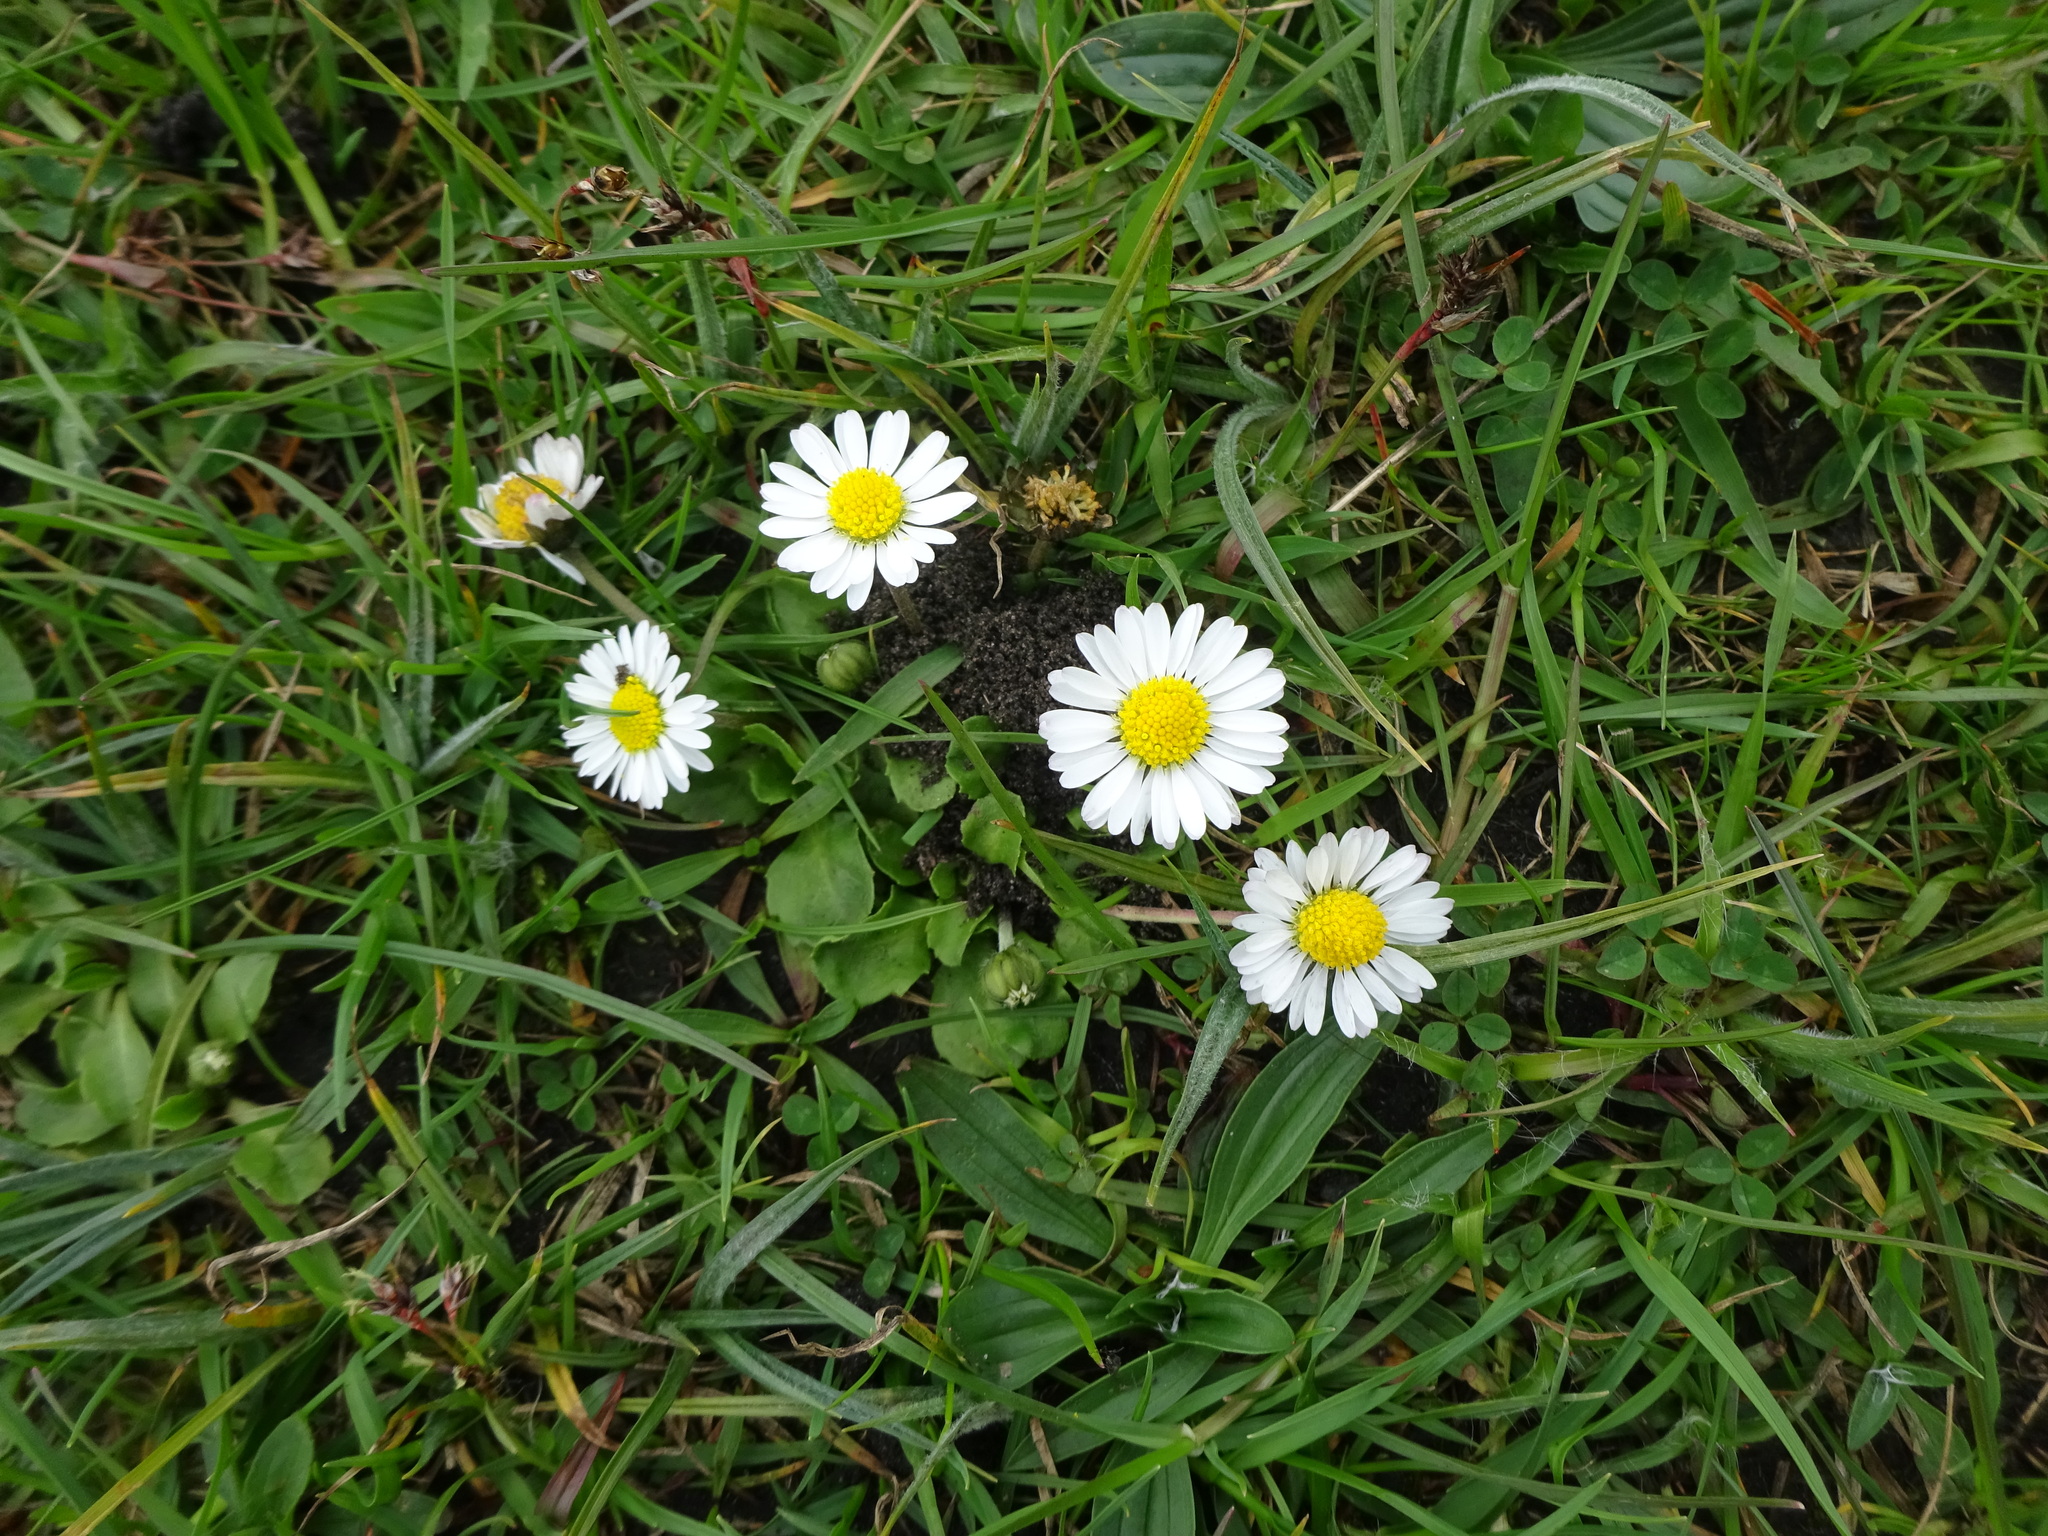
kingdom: Plantae
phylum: Tracheophyta
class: Magnoliopsida
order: Asterales
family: Asteraceae
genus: Bellis
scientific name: Bellis perennis
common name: Lawndaisy
